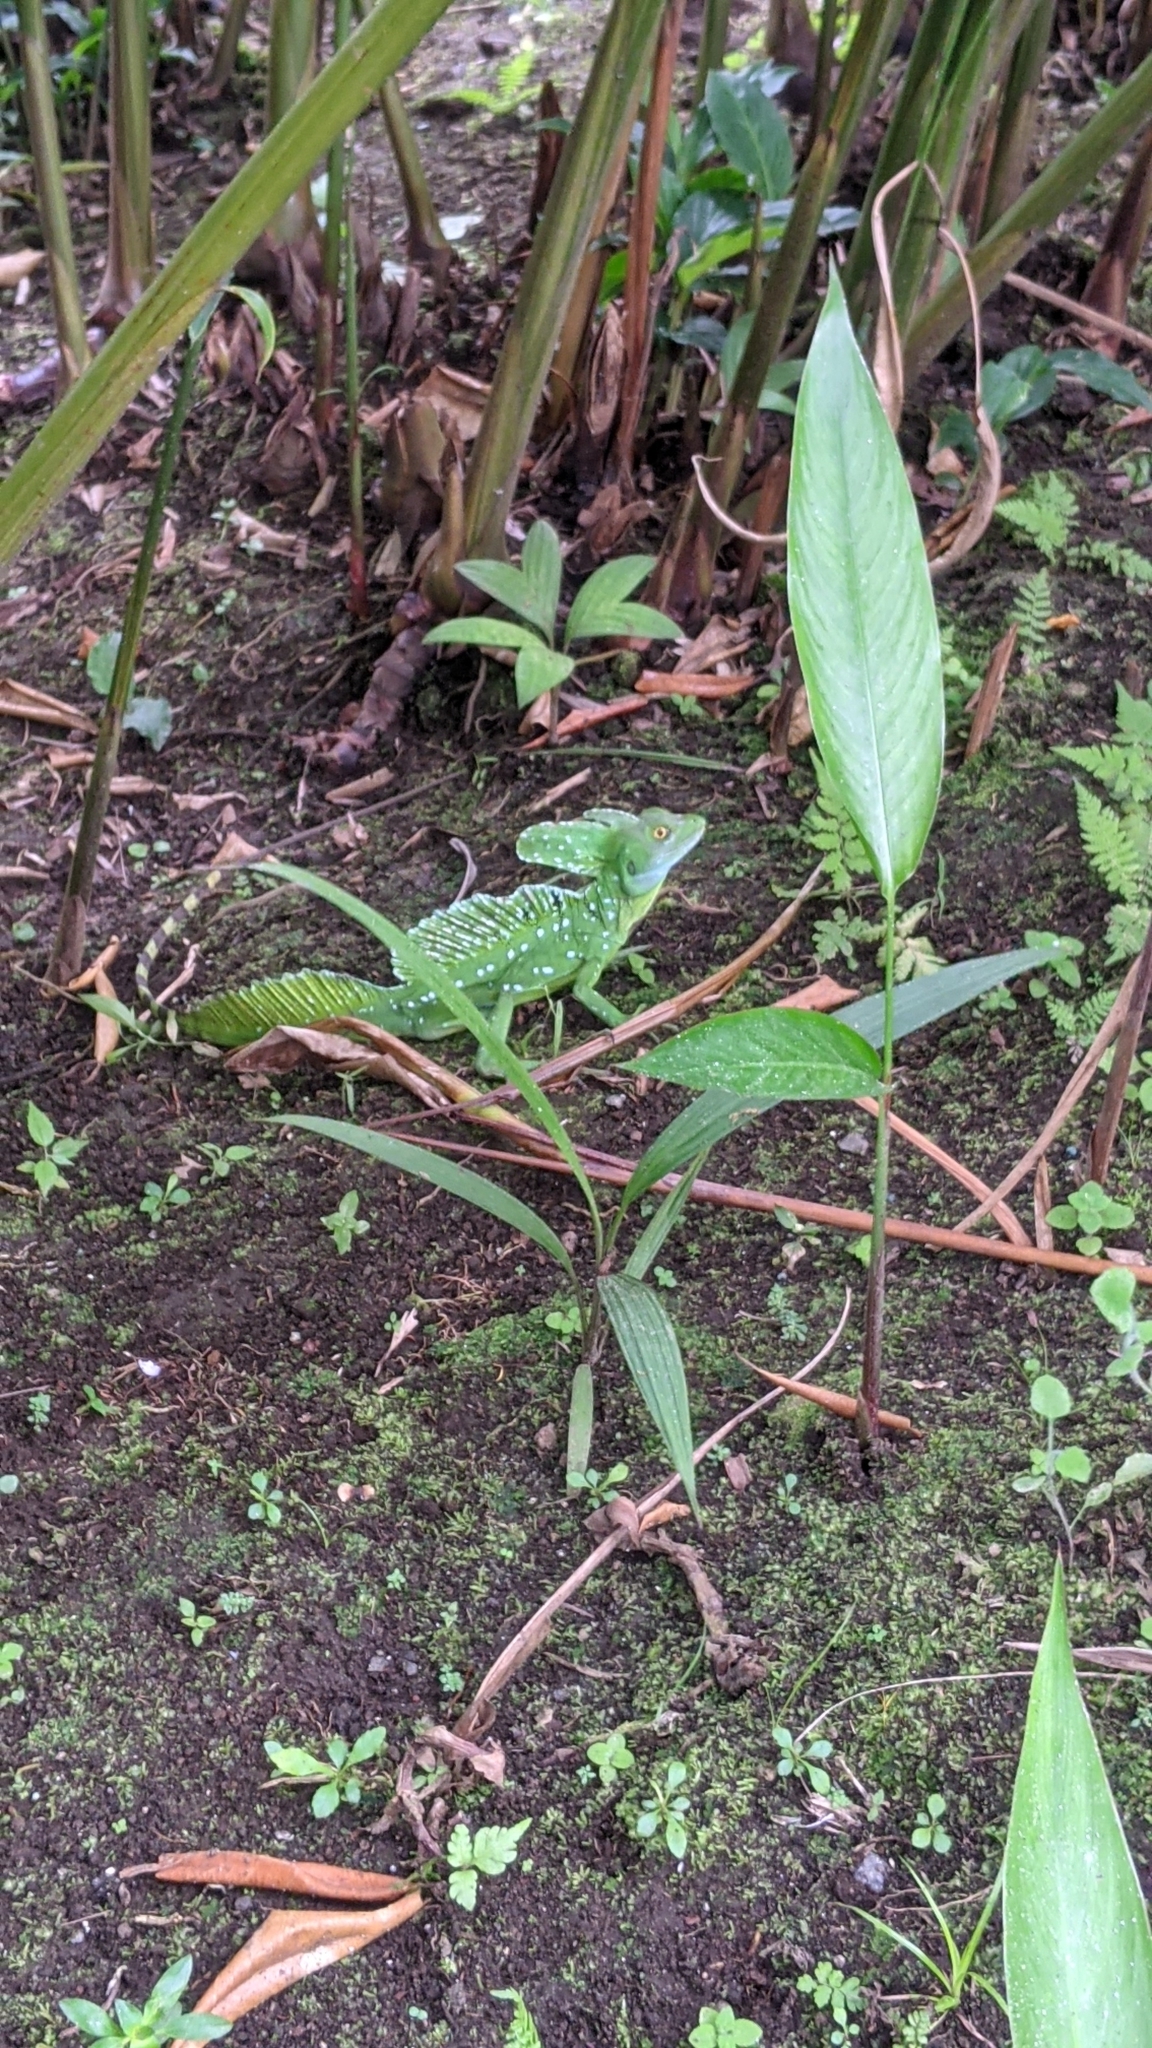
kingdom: Animalia
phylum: Chordata
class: Squamata
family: Corytophanidae
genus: Basiliscus
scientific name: Basiliscus plumifrons
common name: Green basilisk
